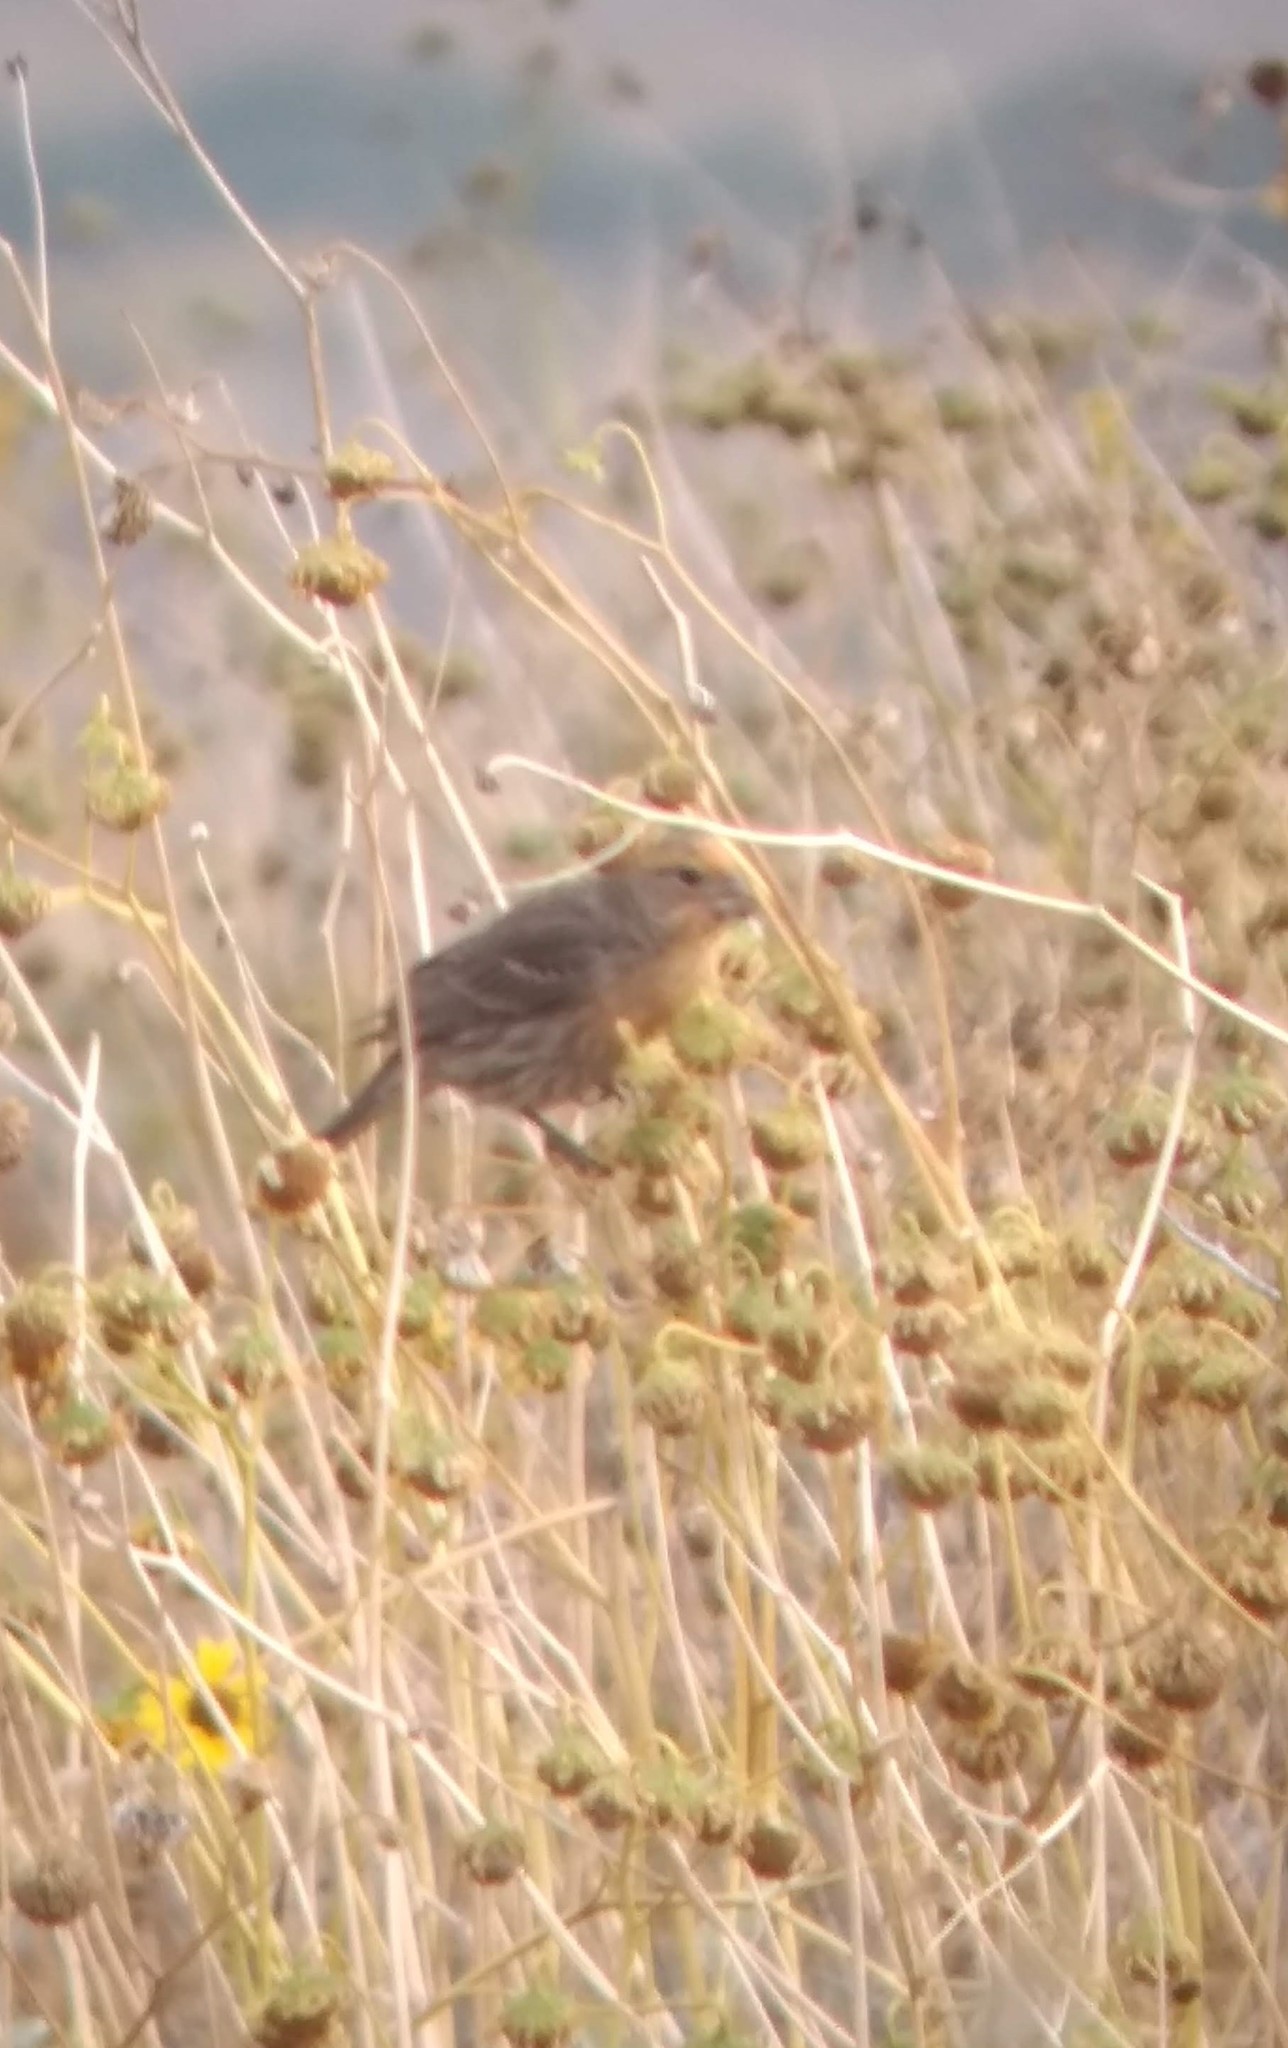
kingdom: Animalia
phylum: Chordata
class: Aves
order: Passeriformes
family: Fringillidae
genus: Haemorhous
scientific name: Haemorhous mexicanus
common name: House finch
